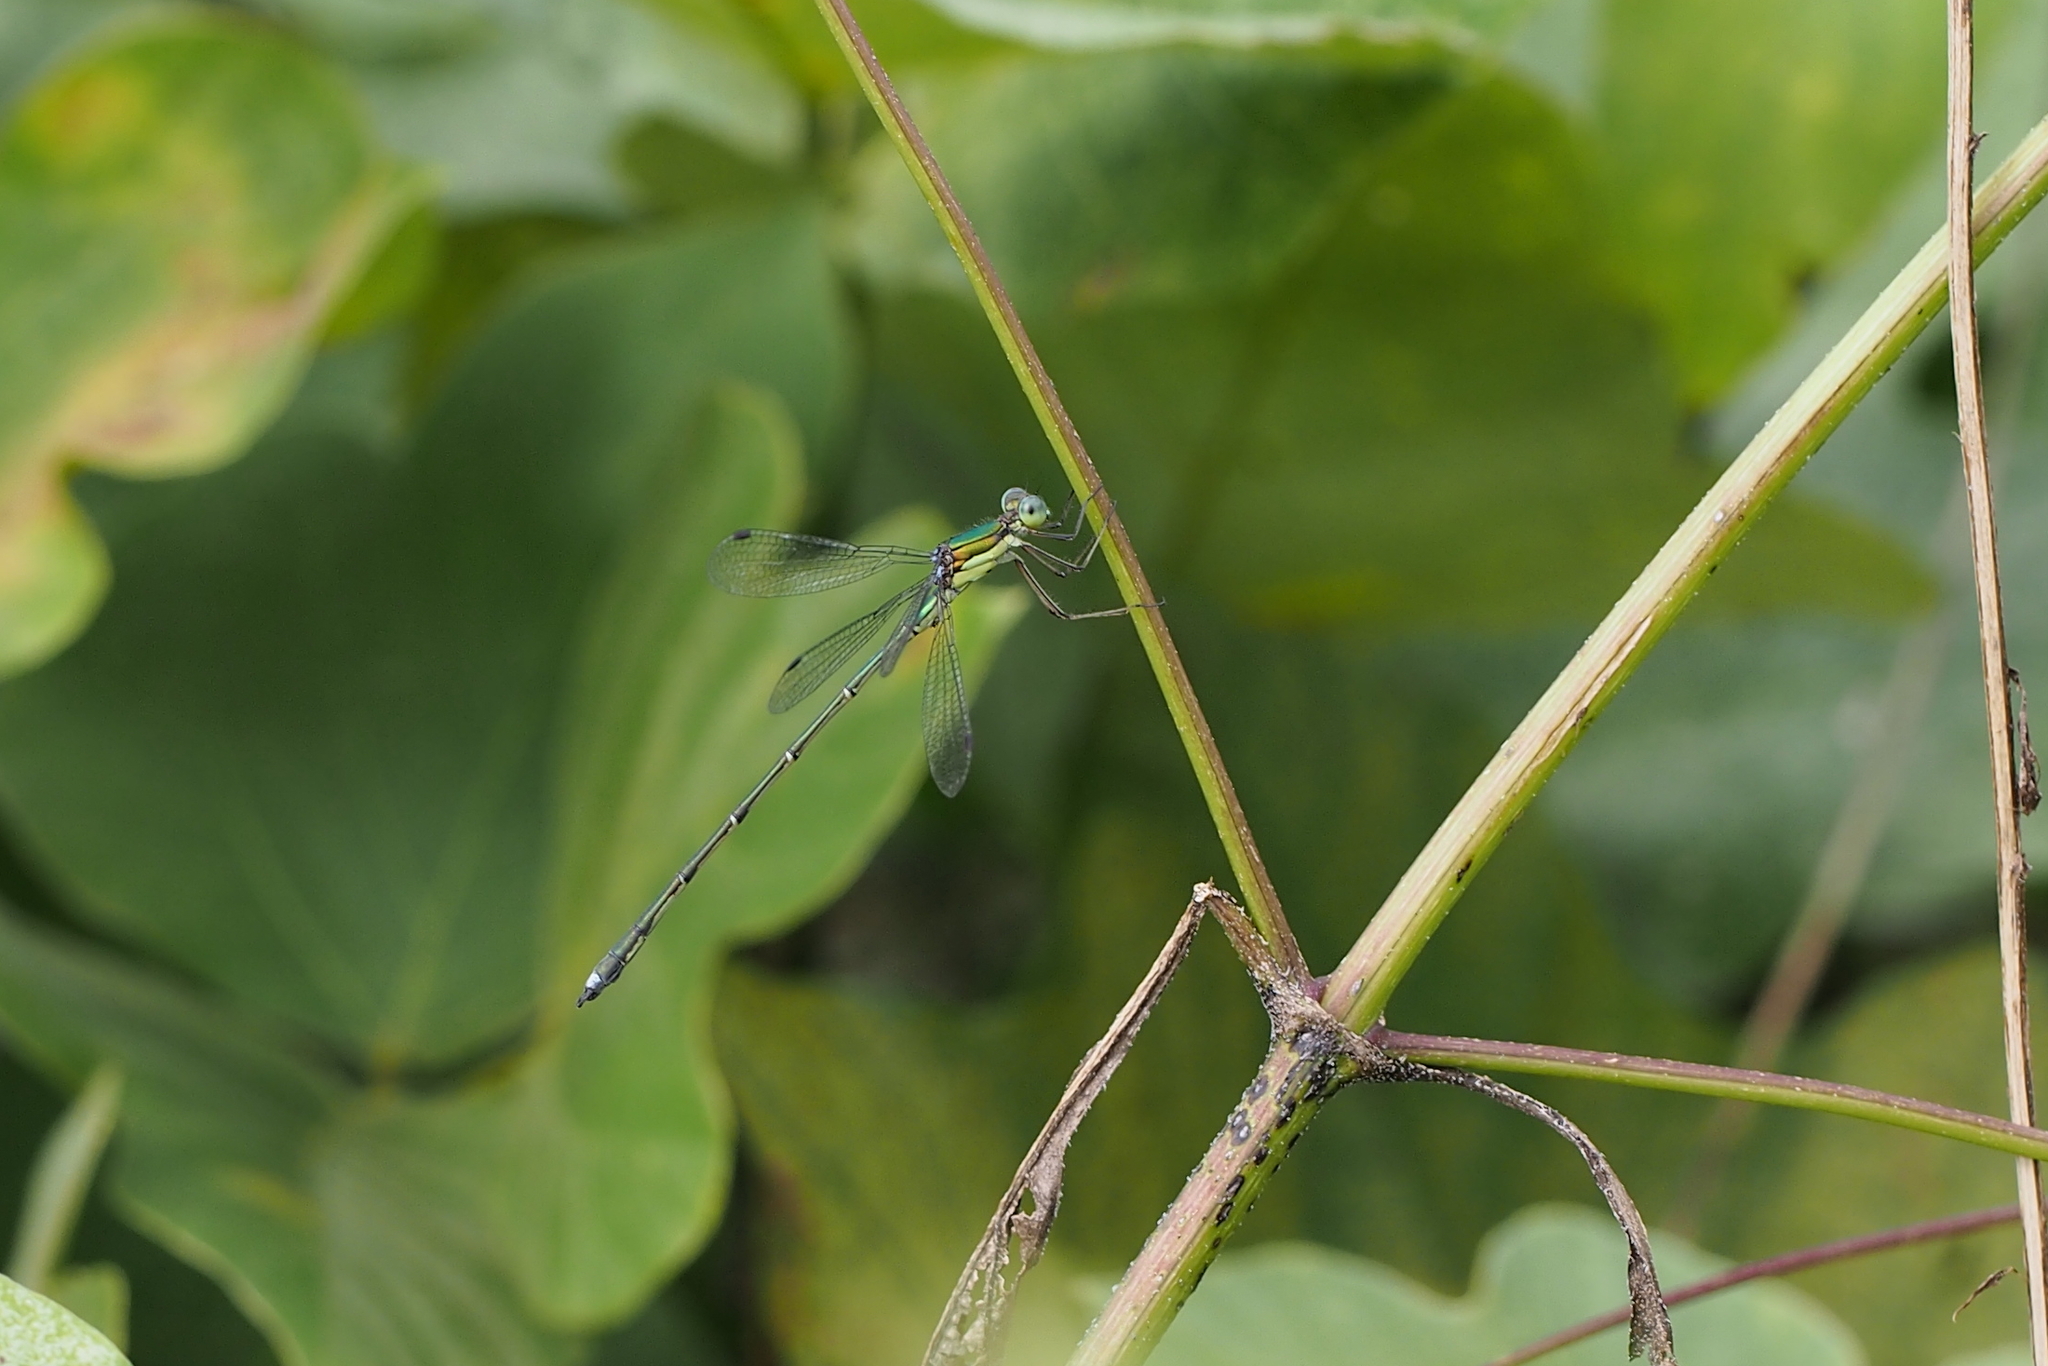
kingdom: Animalia
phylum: Arthropoda
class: Insecta
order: Odonata
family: Lestidae
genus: Lestes
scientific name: Lestes temporalis
